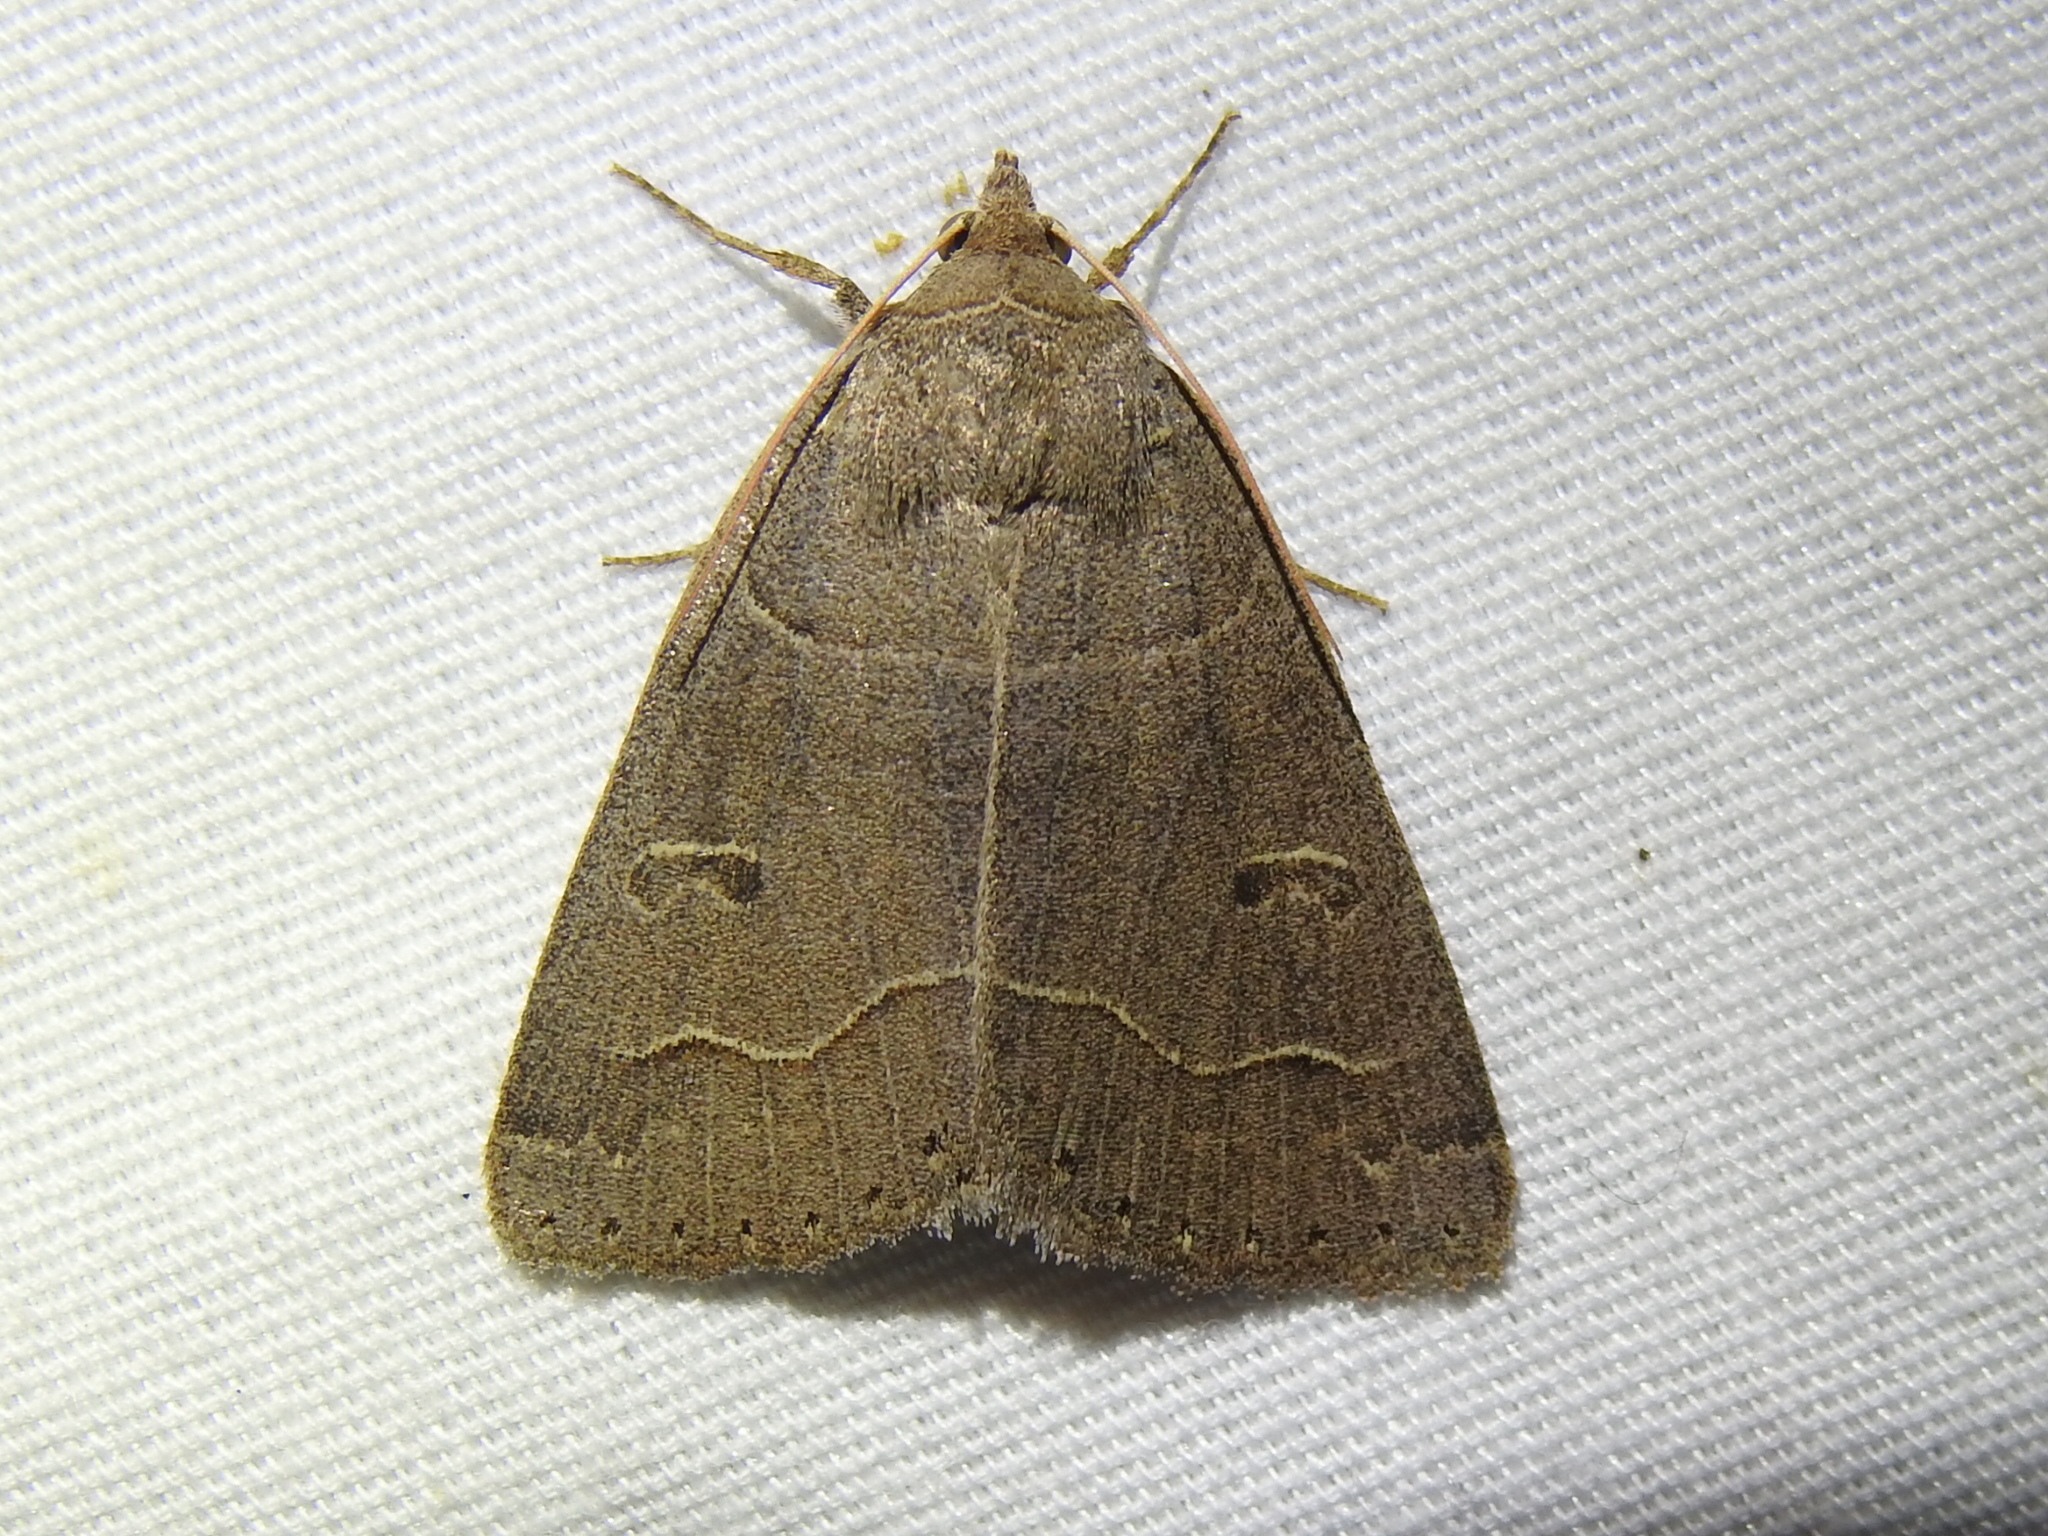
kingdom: Animalia
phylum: Arthropoda
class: Insecta
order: Lepidoptera
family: Erebidae
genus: Phoberia
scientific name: Phoberia atomaris
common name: Common oak moth
